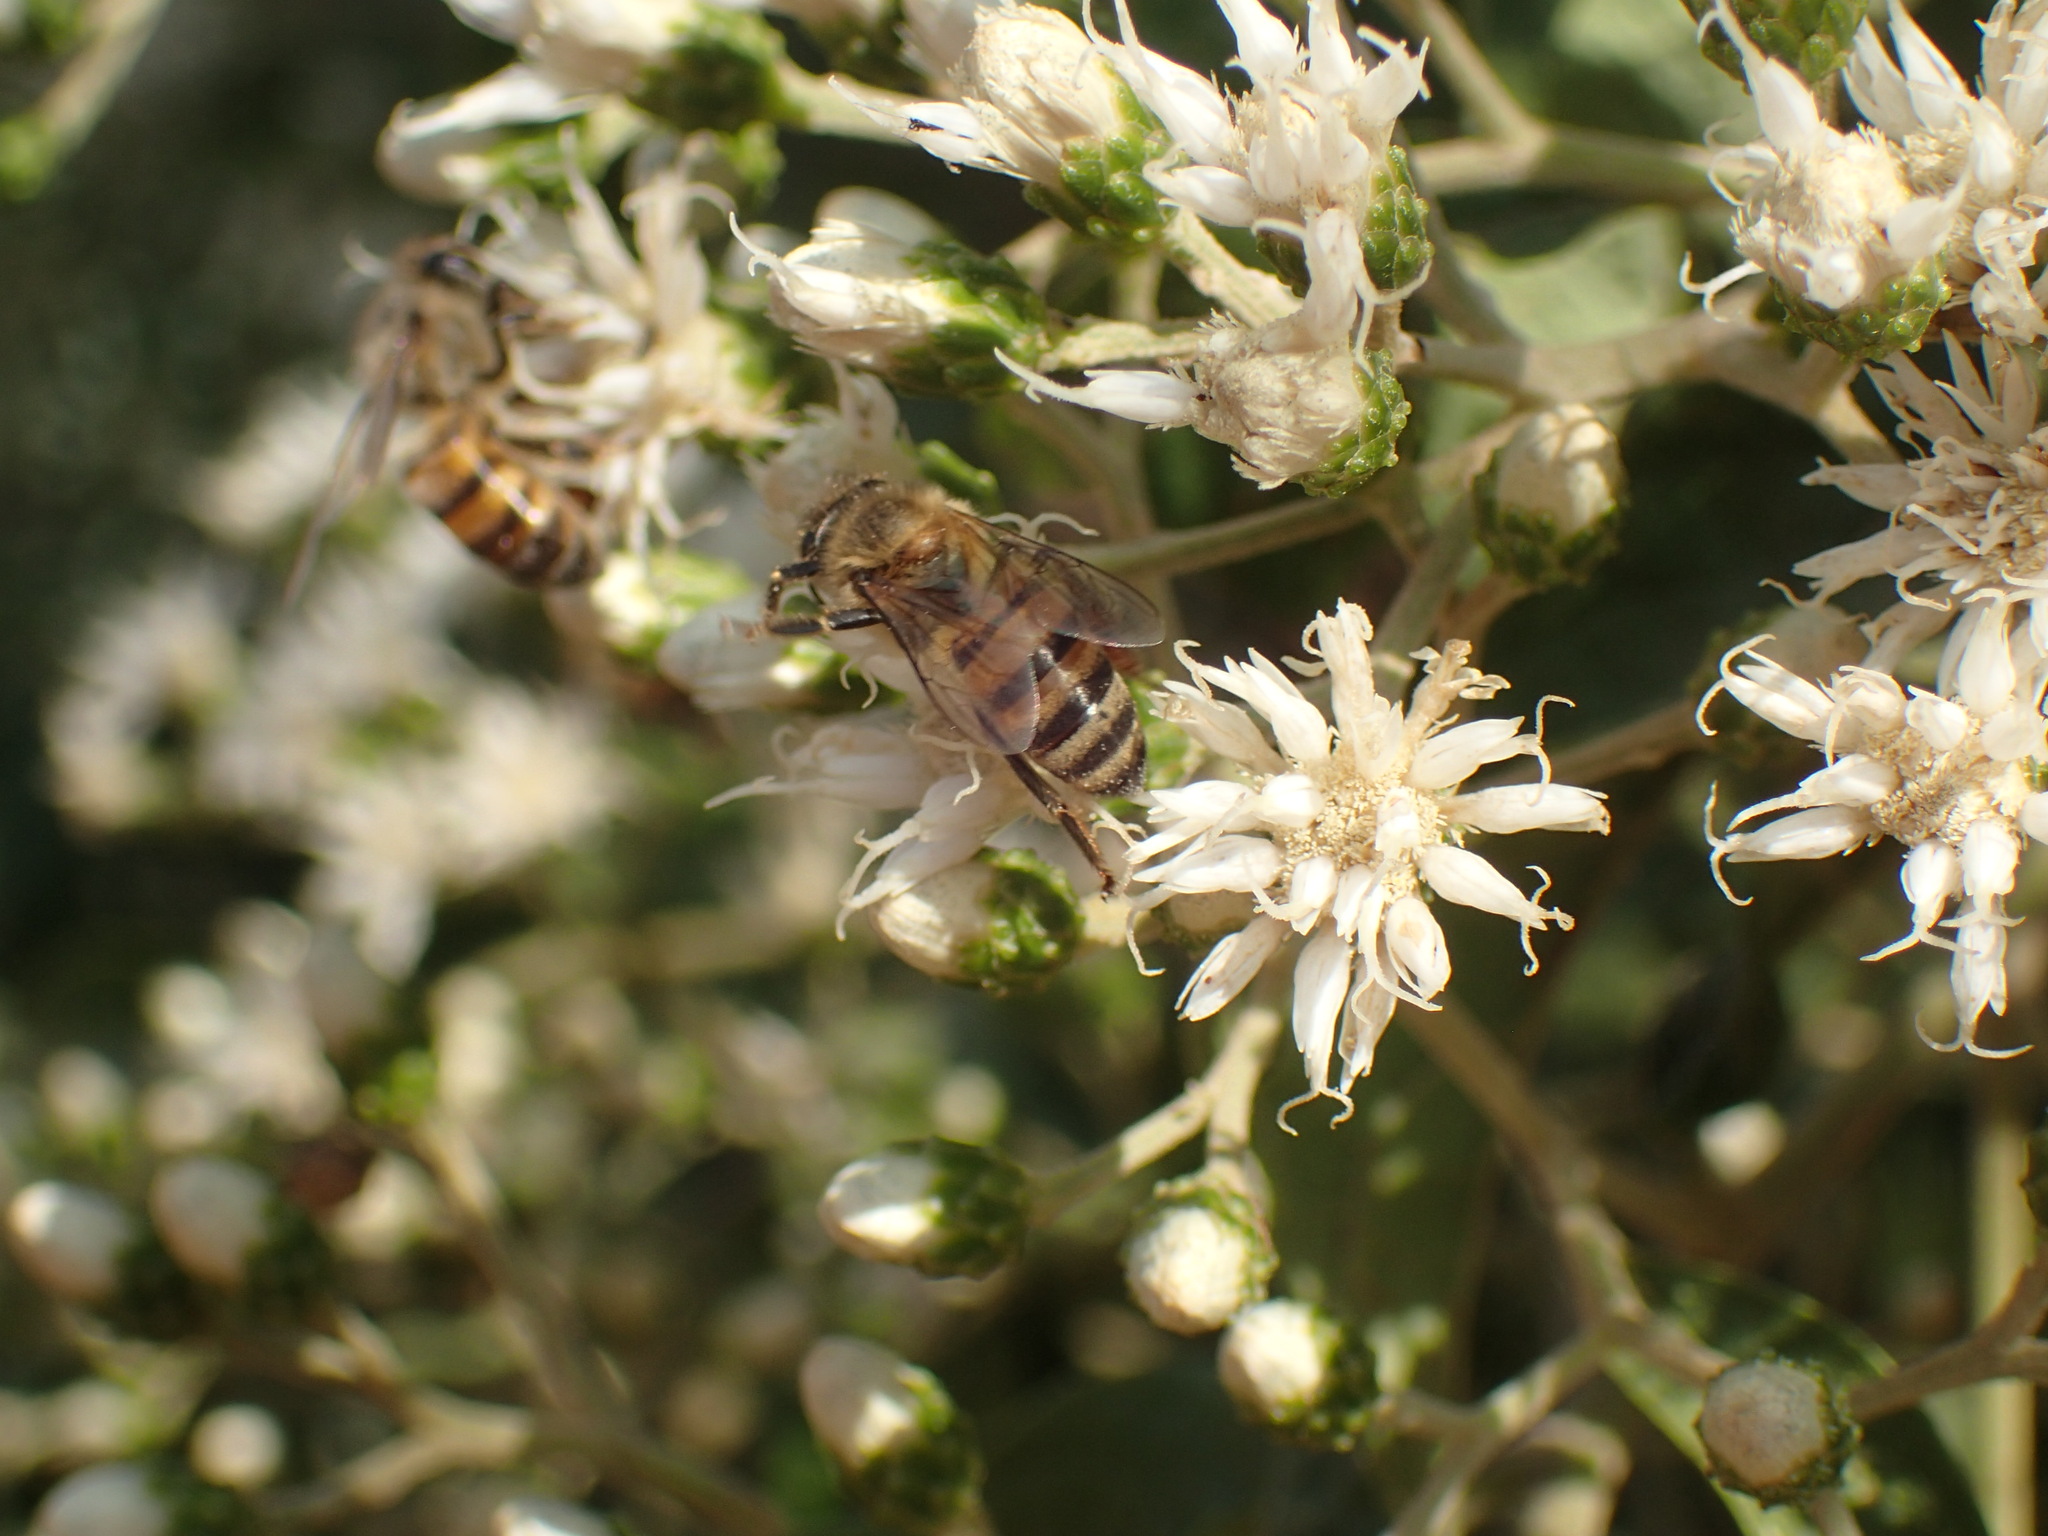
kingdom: Animalia
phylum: Arthropoda
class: Insecta
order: Hymenoptera
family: Apidae
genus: Apis
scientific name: Apis mellifera
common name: Honey bee
